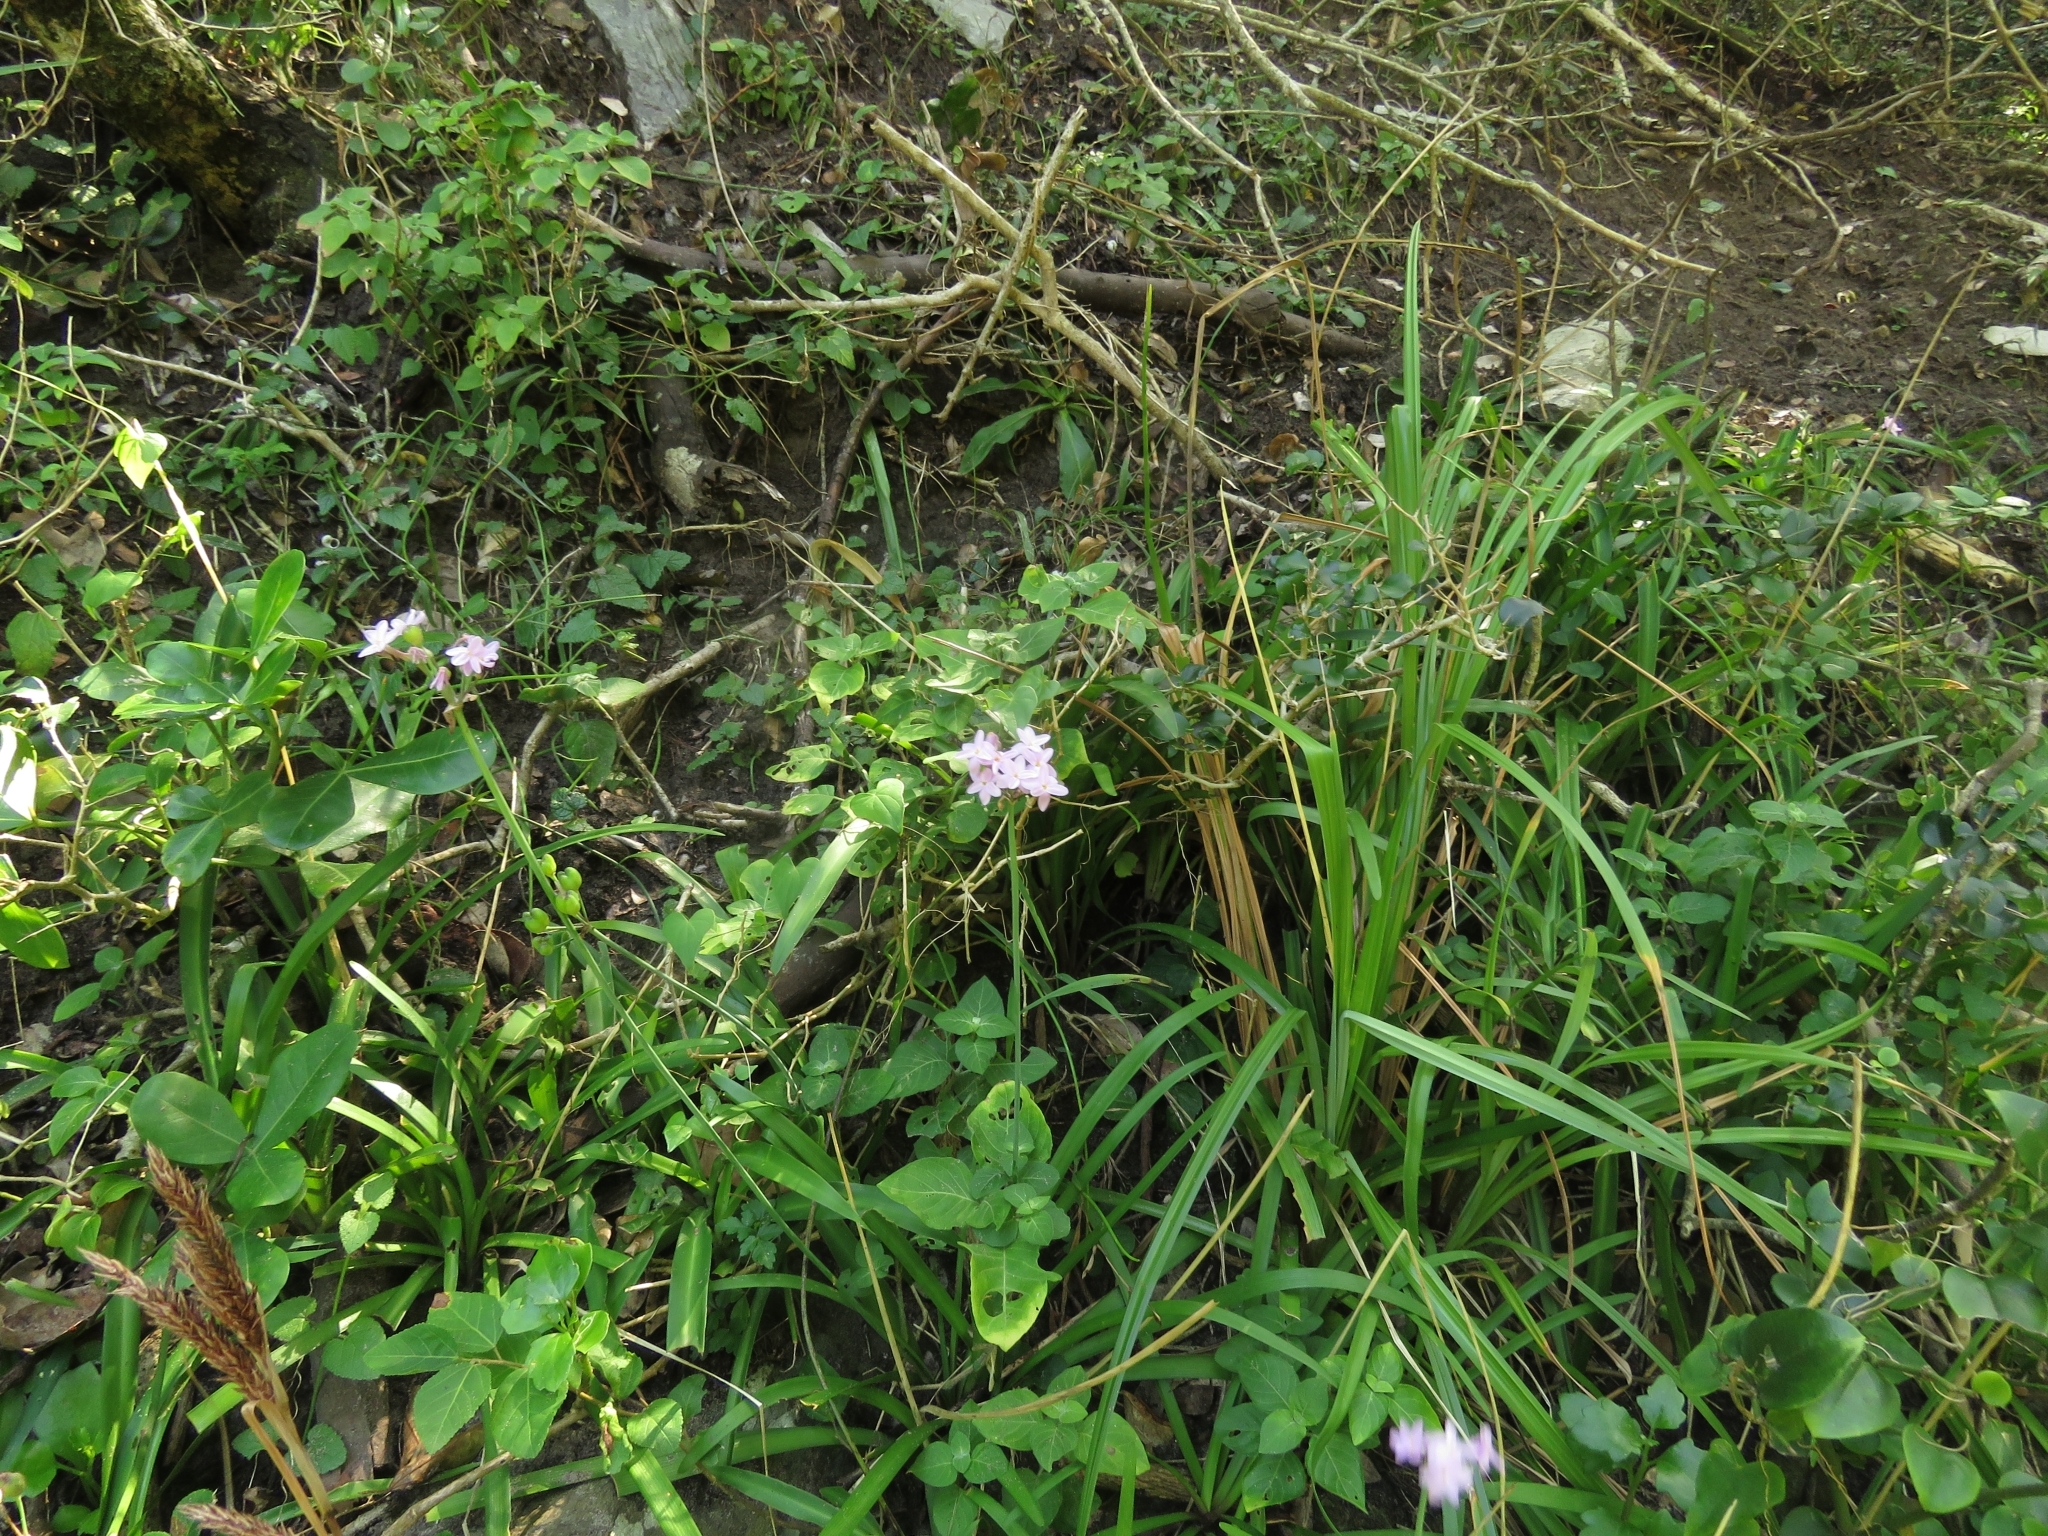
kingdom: Plantae
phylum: Tracheophyta
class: Liliopsida
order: Asparagales
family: Amaryllidaceae
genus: Tulbaghia
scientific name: Tulbaghia maritima
